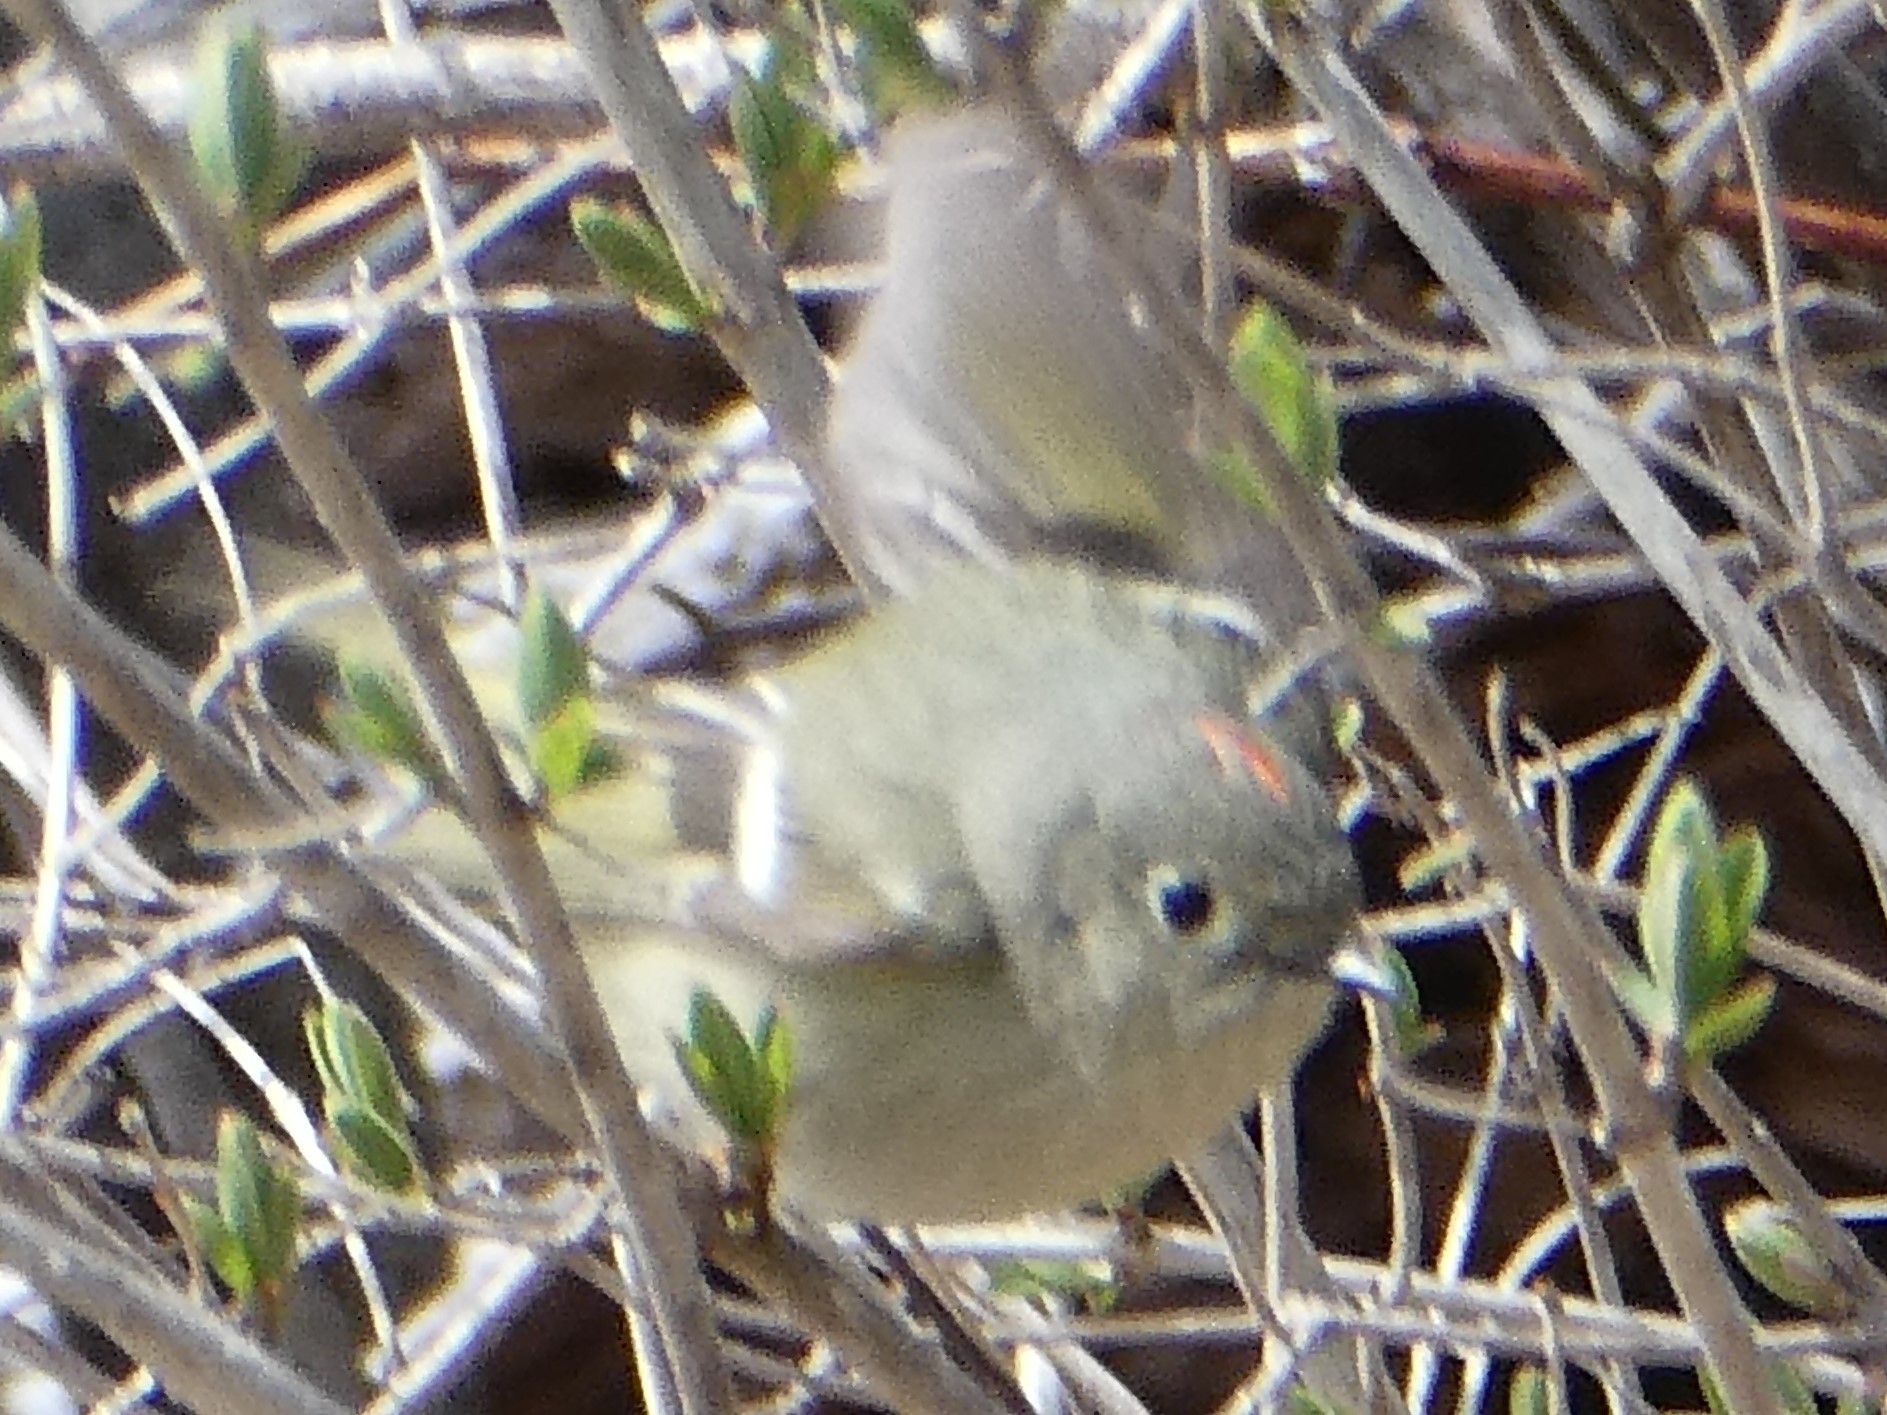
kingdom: Animalia
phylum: Chordata
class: Aves
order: Passeriformes
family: Regulidae
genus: Regulus
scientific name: Regulus calendula
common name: Ruby-crowned kinglet
